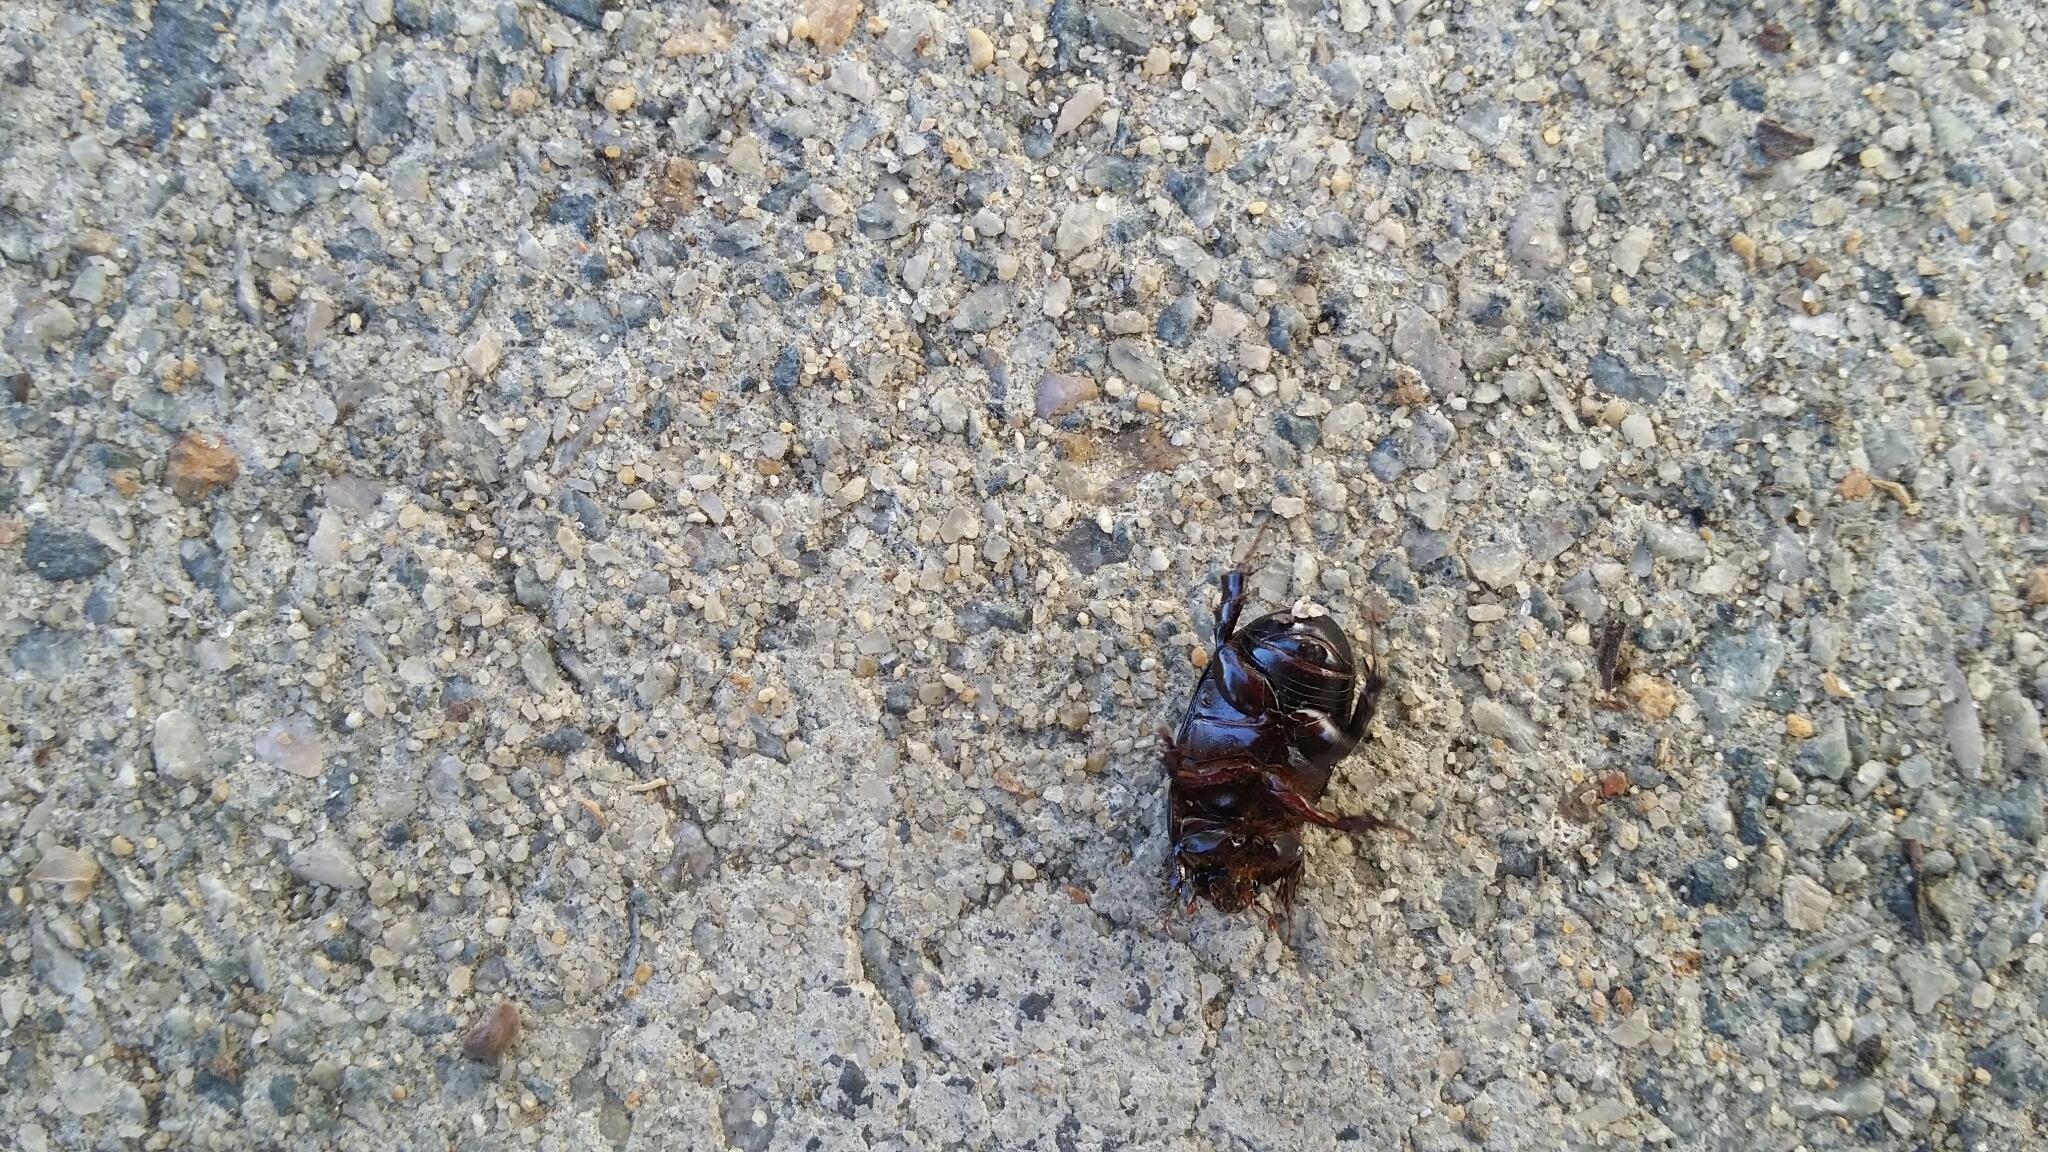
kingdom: Animalia
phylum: Arthropoda
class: Insecta
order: Coleoptera
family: Scarabaeidae
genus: Heteronychus
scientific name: Heteronychus arator
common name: African black beetle
